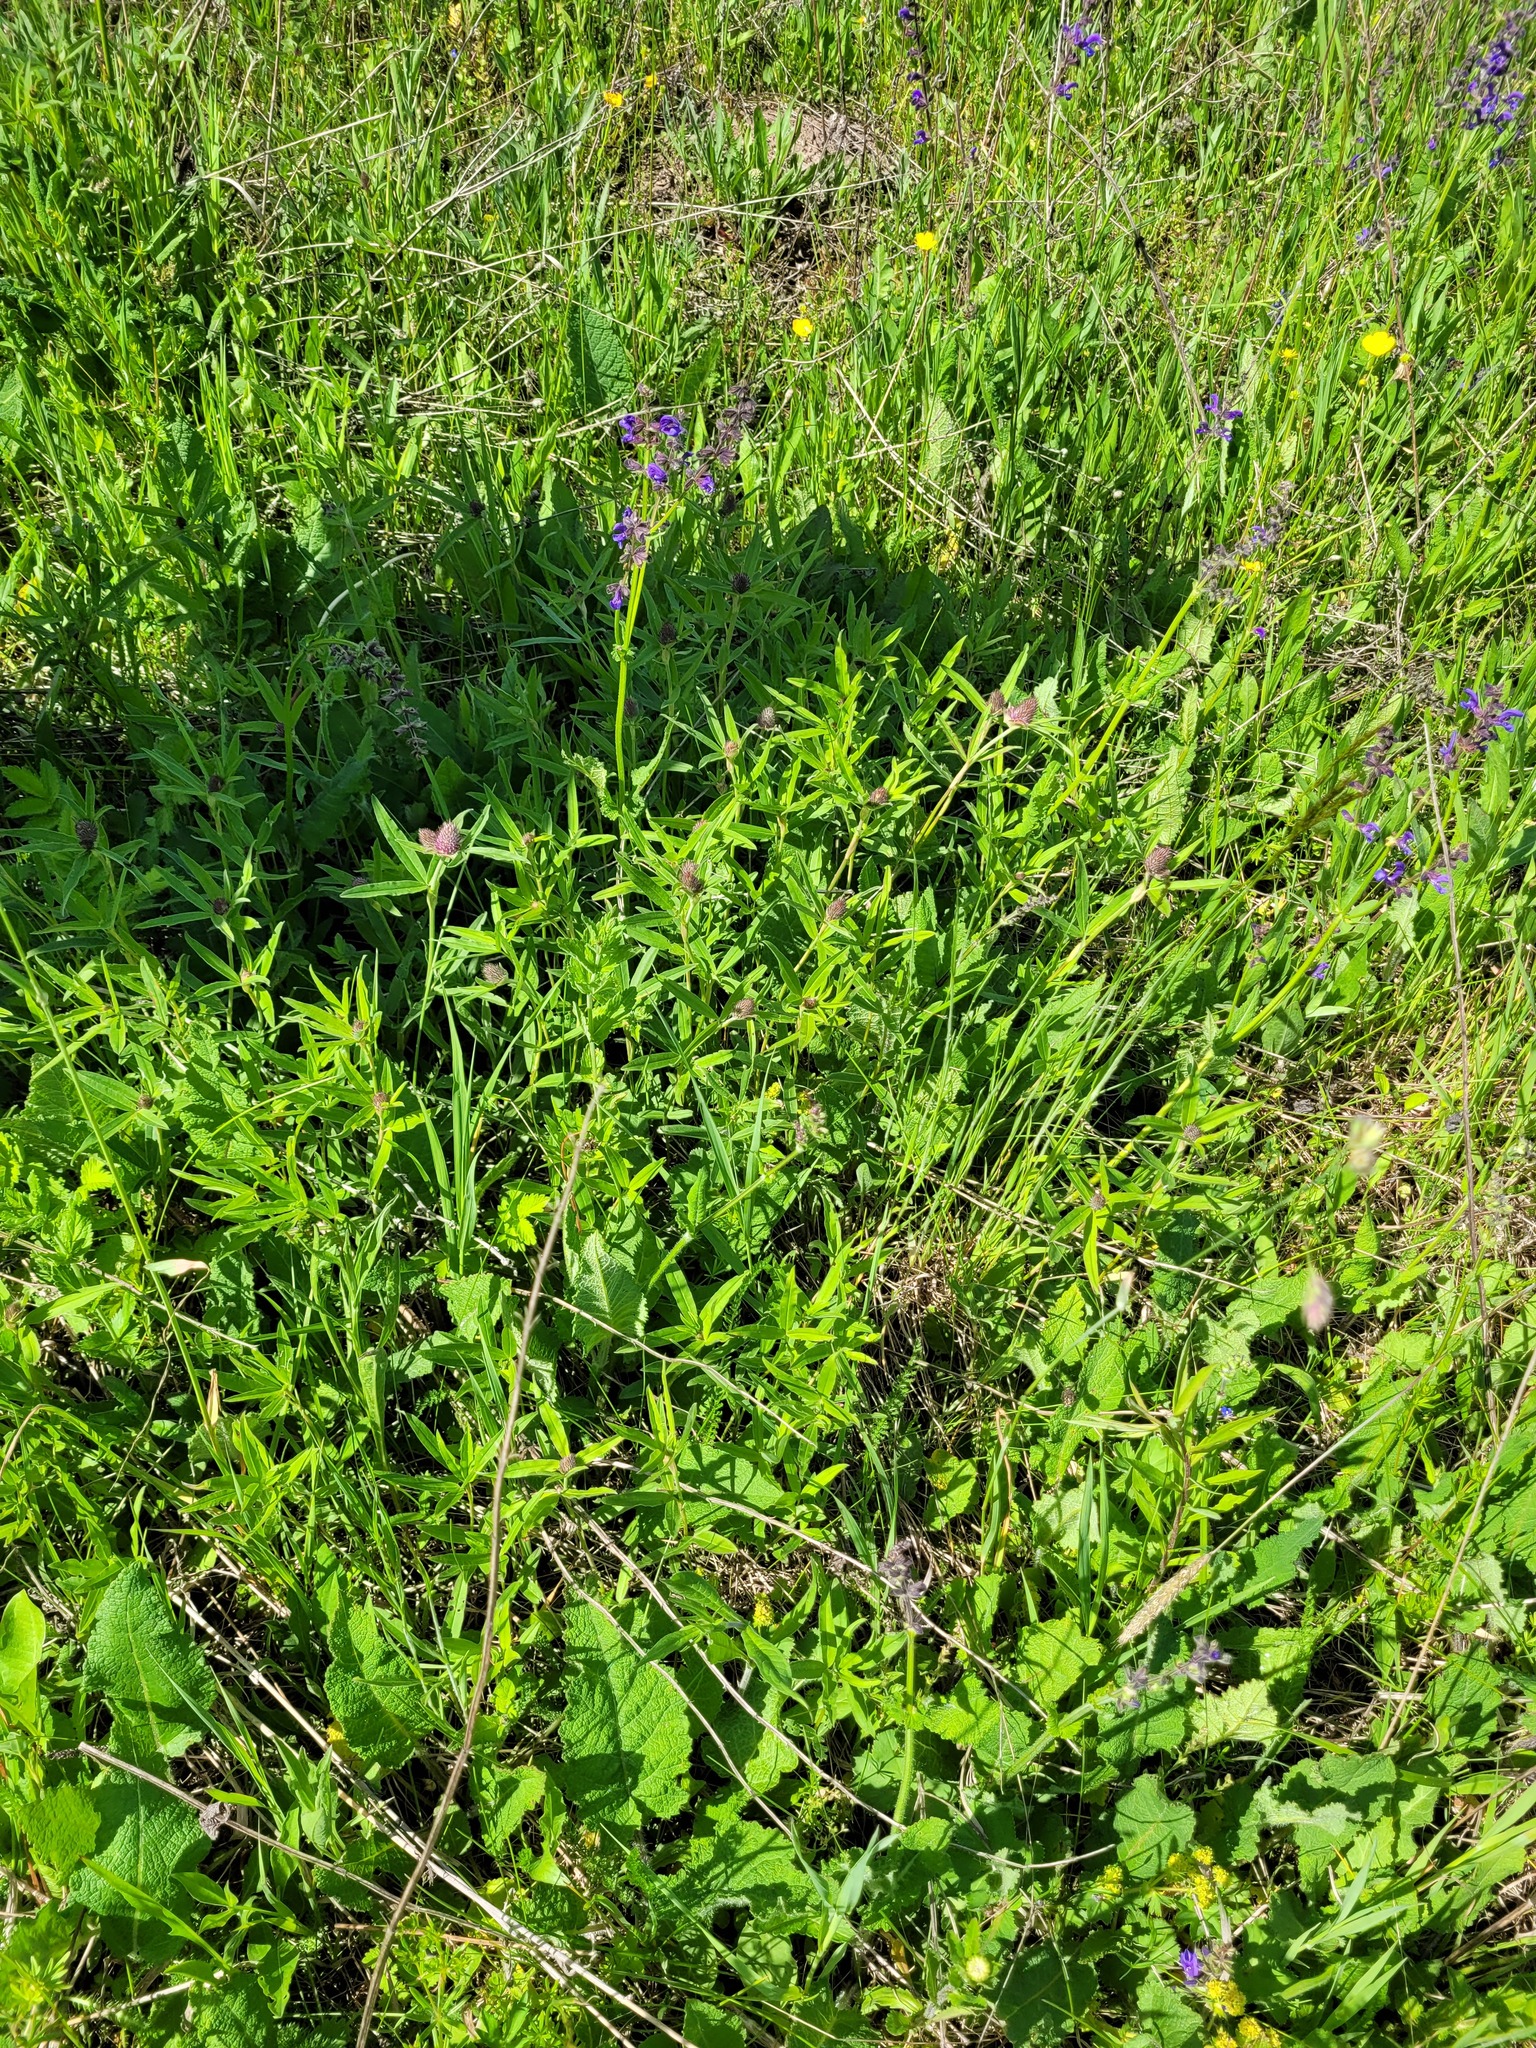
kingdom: Plantae
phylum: Tracheophyta
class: Magnoliopsida
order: Fabales
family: Fabaceae
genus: Trifolium
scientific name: Trifolium alpestre
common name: Owl-head clover
